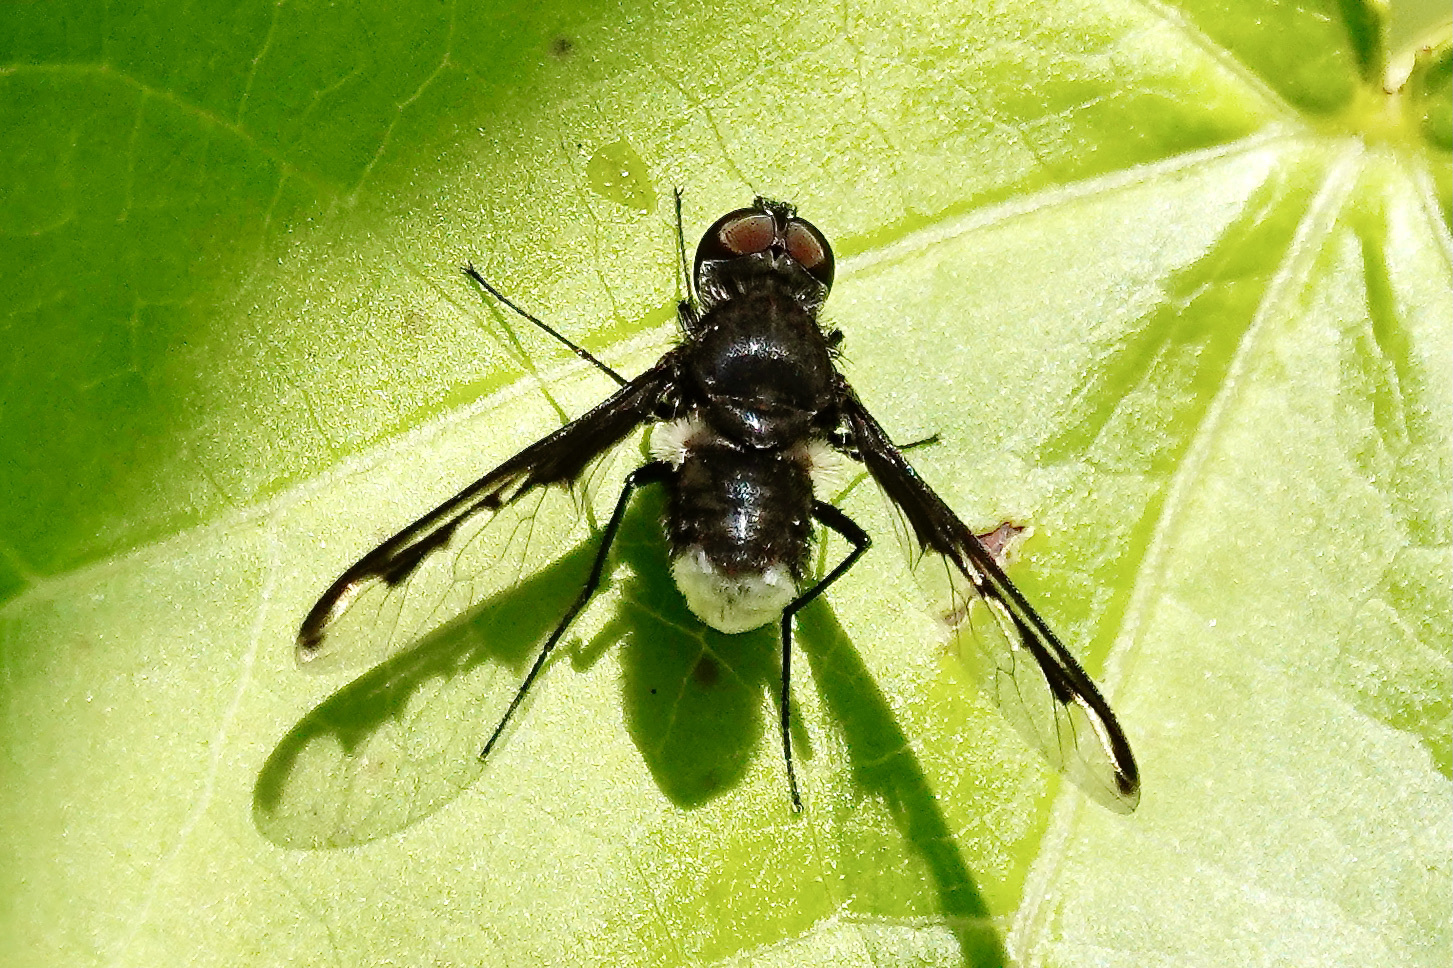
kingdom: Animalia
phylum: Arthropoda
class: Insecta
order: Diptera
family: Bombyliidae
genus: Anthrax
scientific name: Anthrax argyropygus
